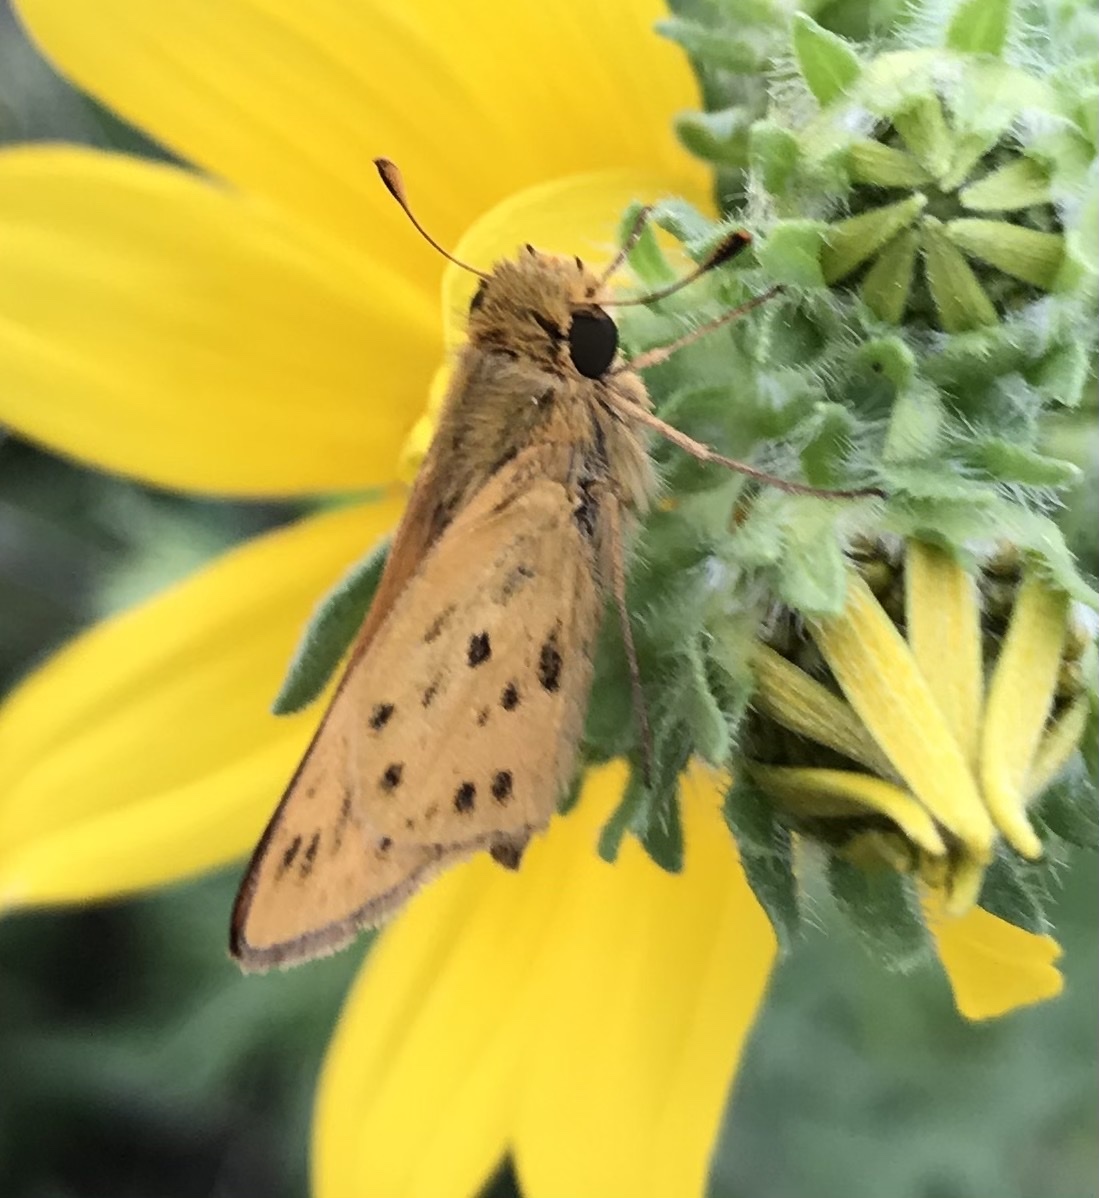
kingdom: Animalia
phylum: Arthropoda
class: Insecta
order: Lepidoptera
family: Hesperiidae
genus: Hylephila
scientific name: Hylephila phyleus
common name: Fiery skipper
